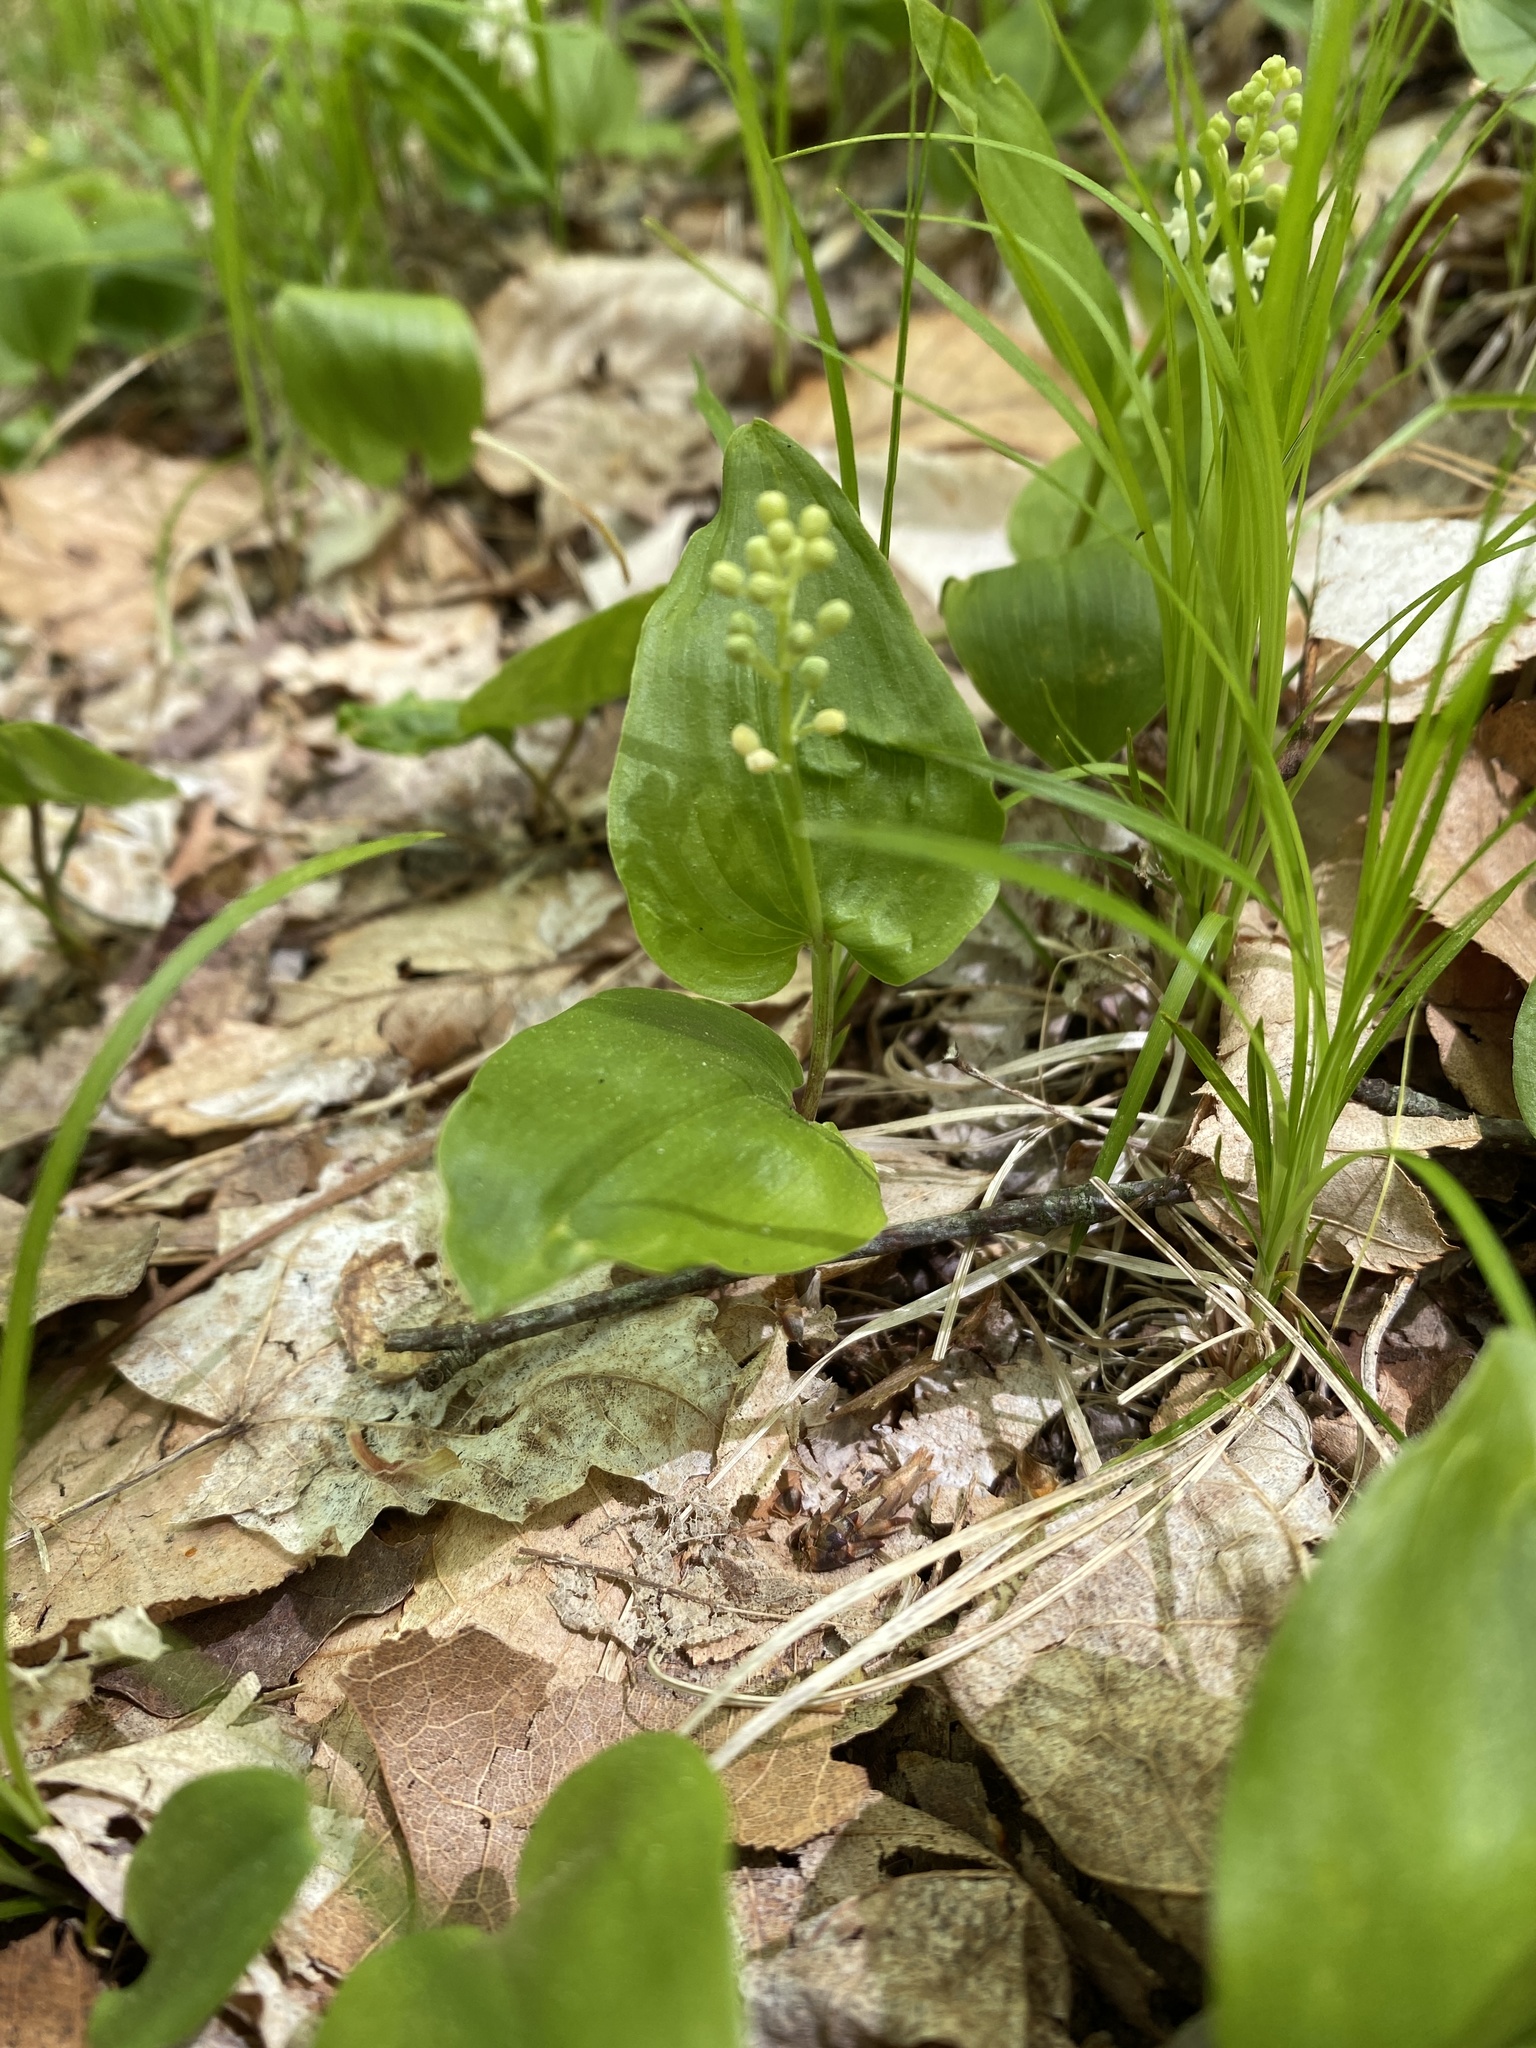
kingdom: Plantae
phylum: Tracheophyta
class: Liliopsida
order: Asparagales
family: Asparagaceae
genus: Maianthemum
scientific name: Maianthemum canadense
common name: False lily-of-the-valley
